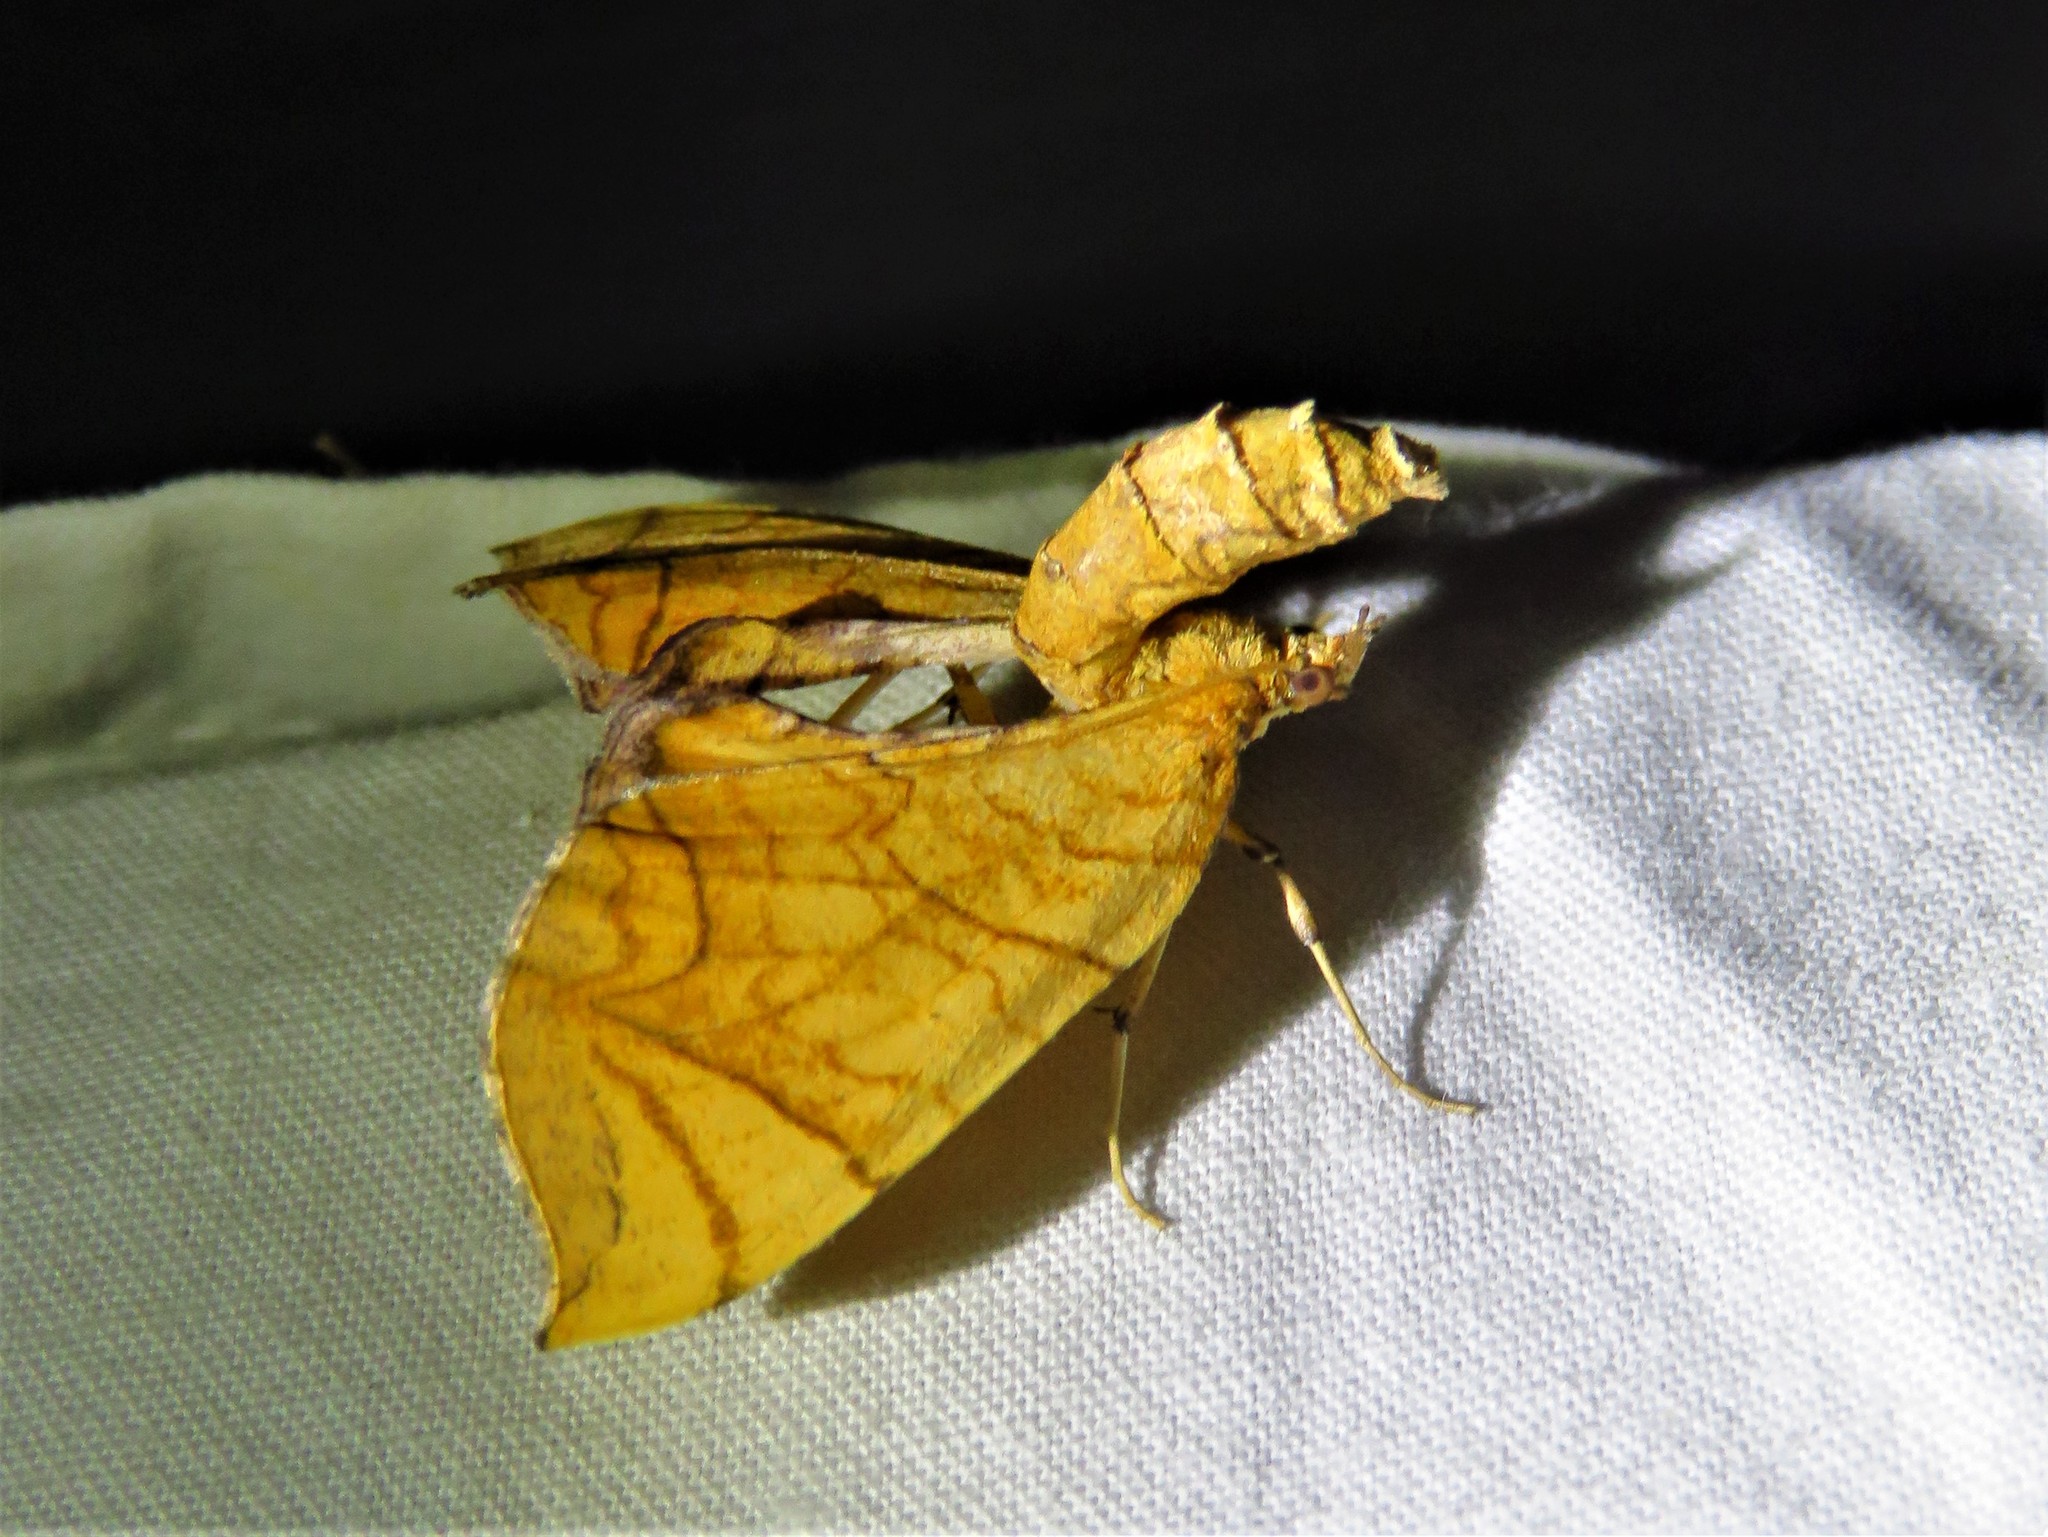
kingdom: Animalia
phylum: Arthropoda
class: Insecta
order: Lepidoptera
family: Geometridae
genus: Eulithis
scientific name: Eulithis
